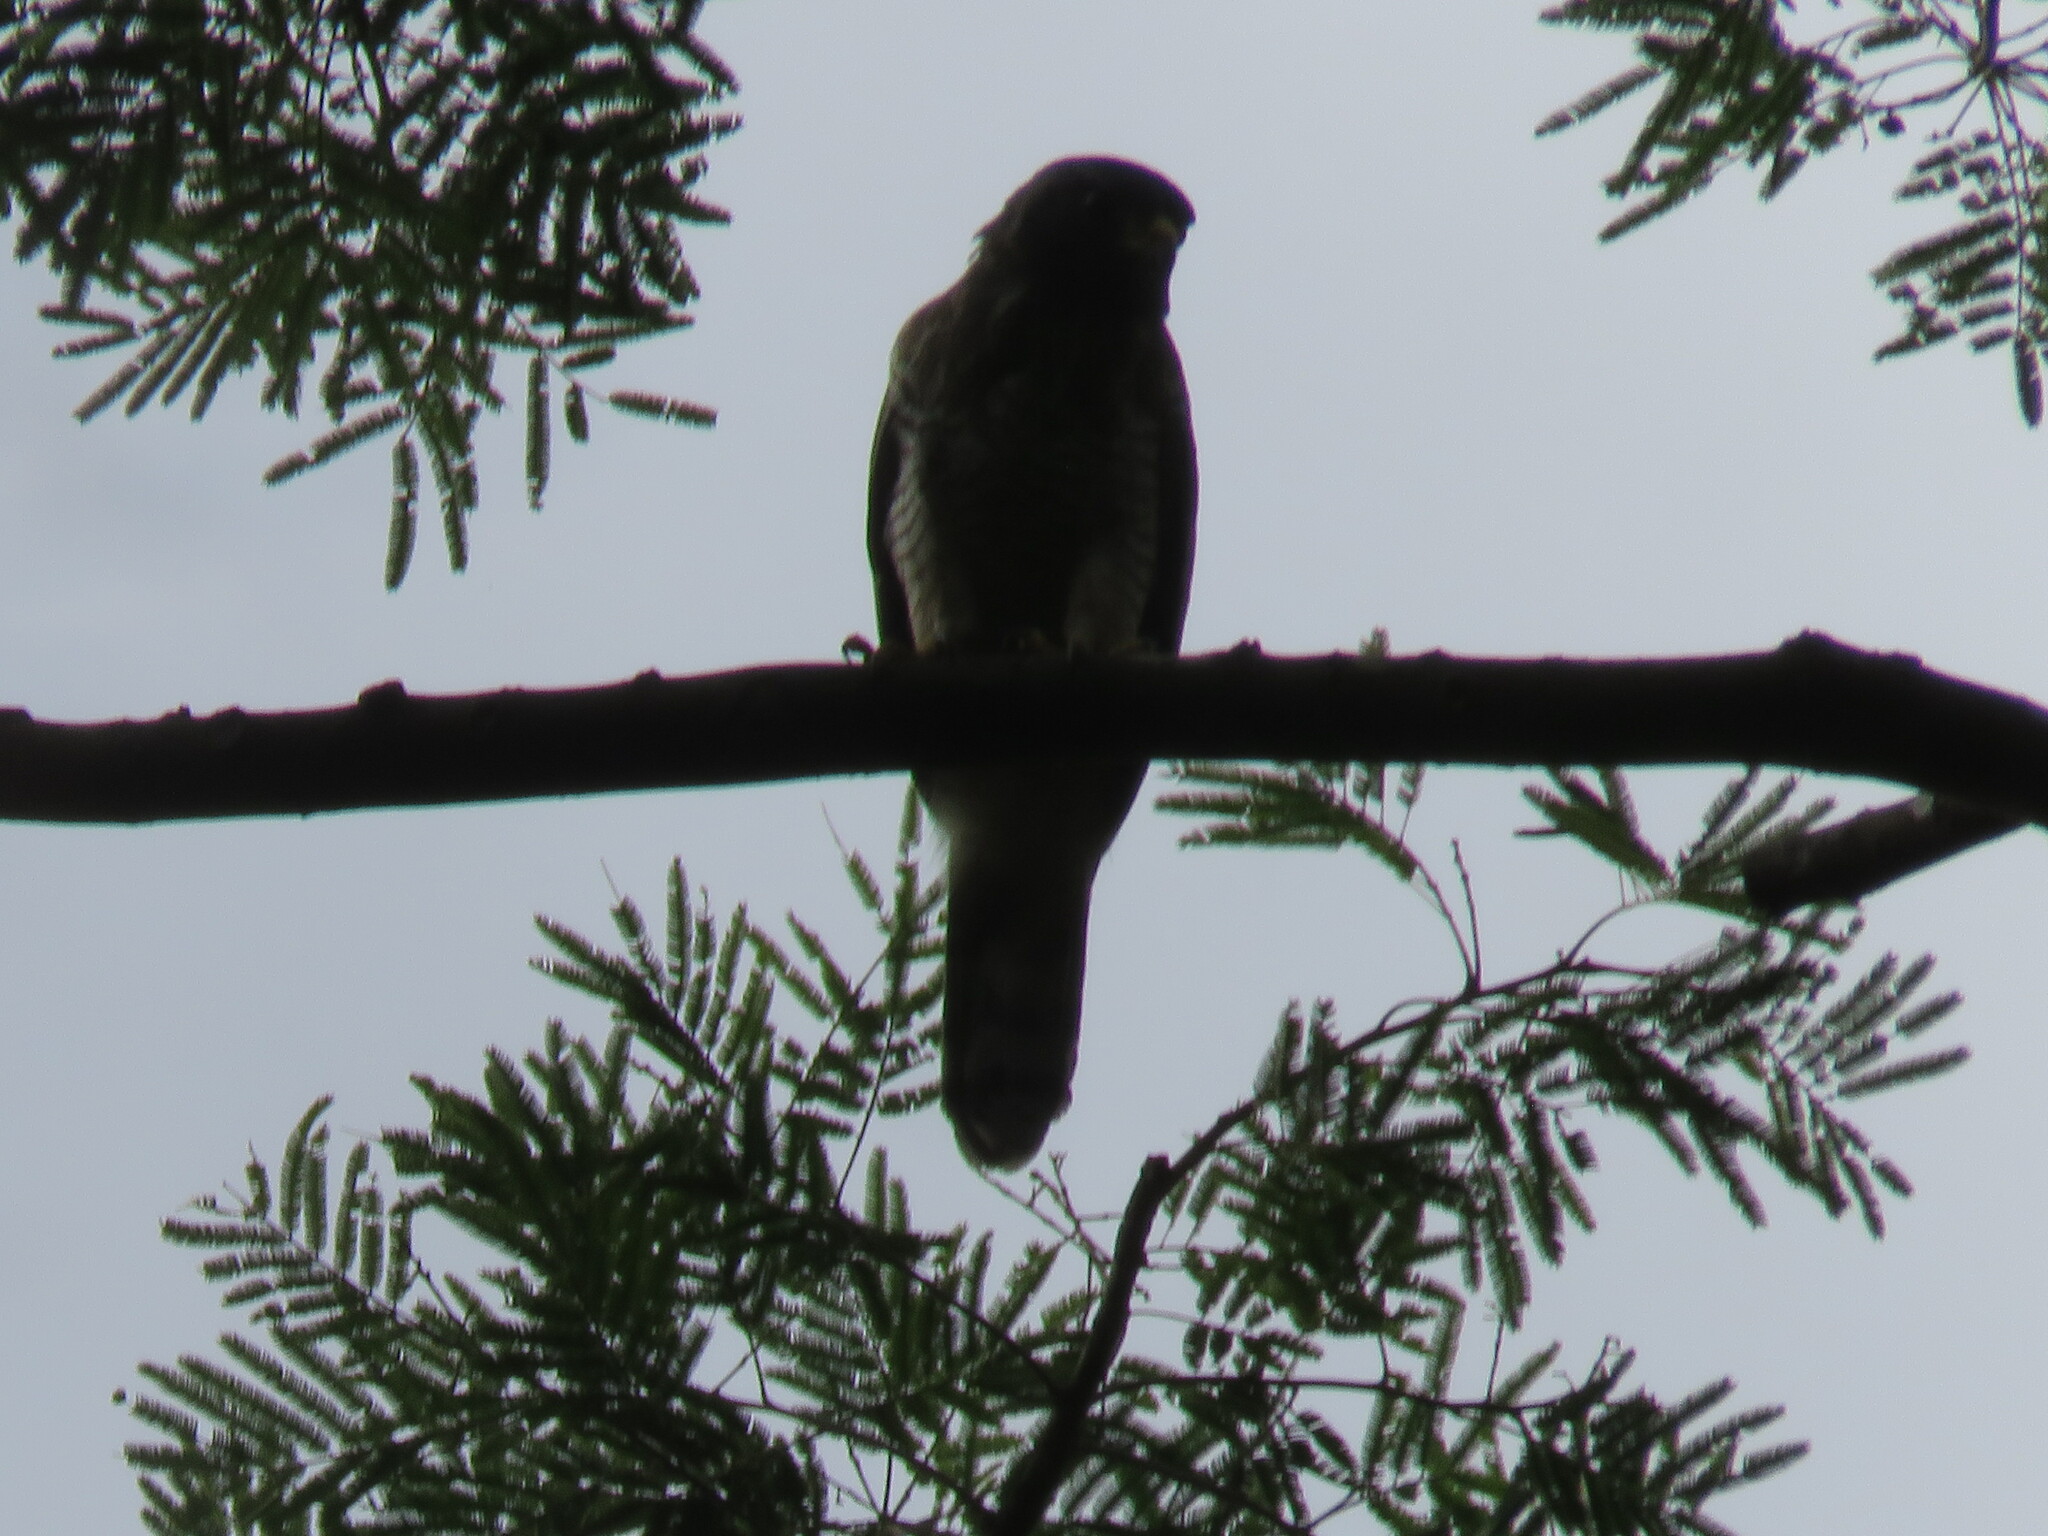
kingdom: Animalia
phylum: Chordata
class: Aves
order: Accipitriformes
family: Accipitridae
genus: Rupornis
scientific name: Rupornis magnirostris
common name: Roadside hawk
